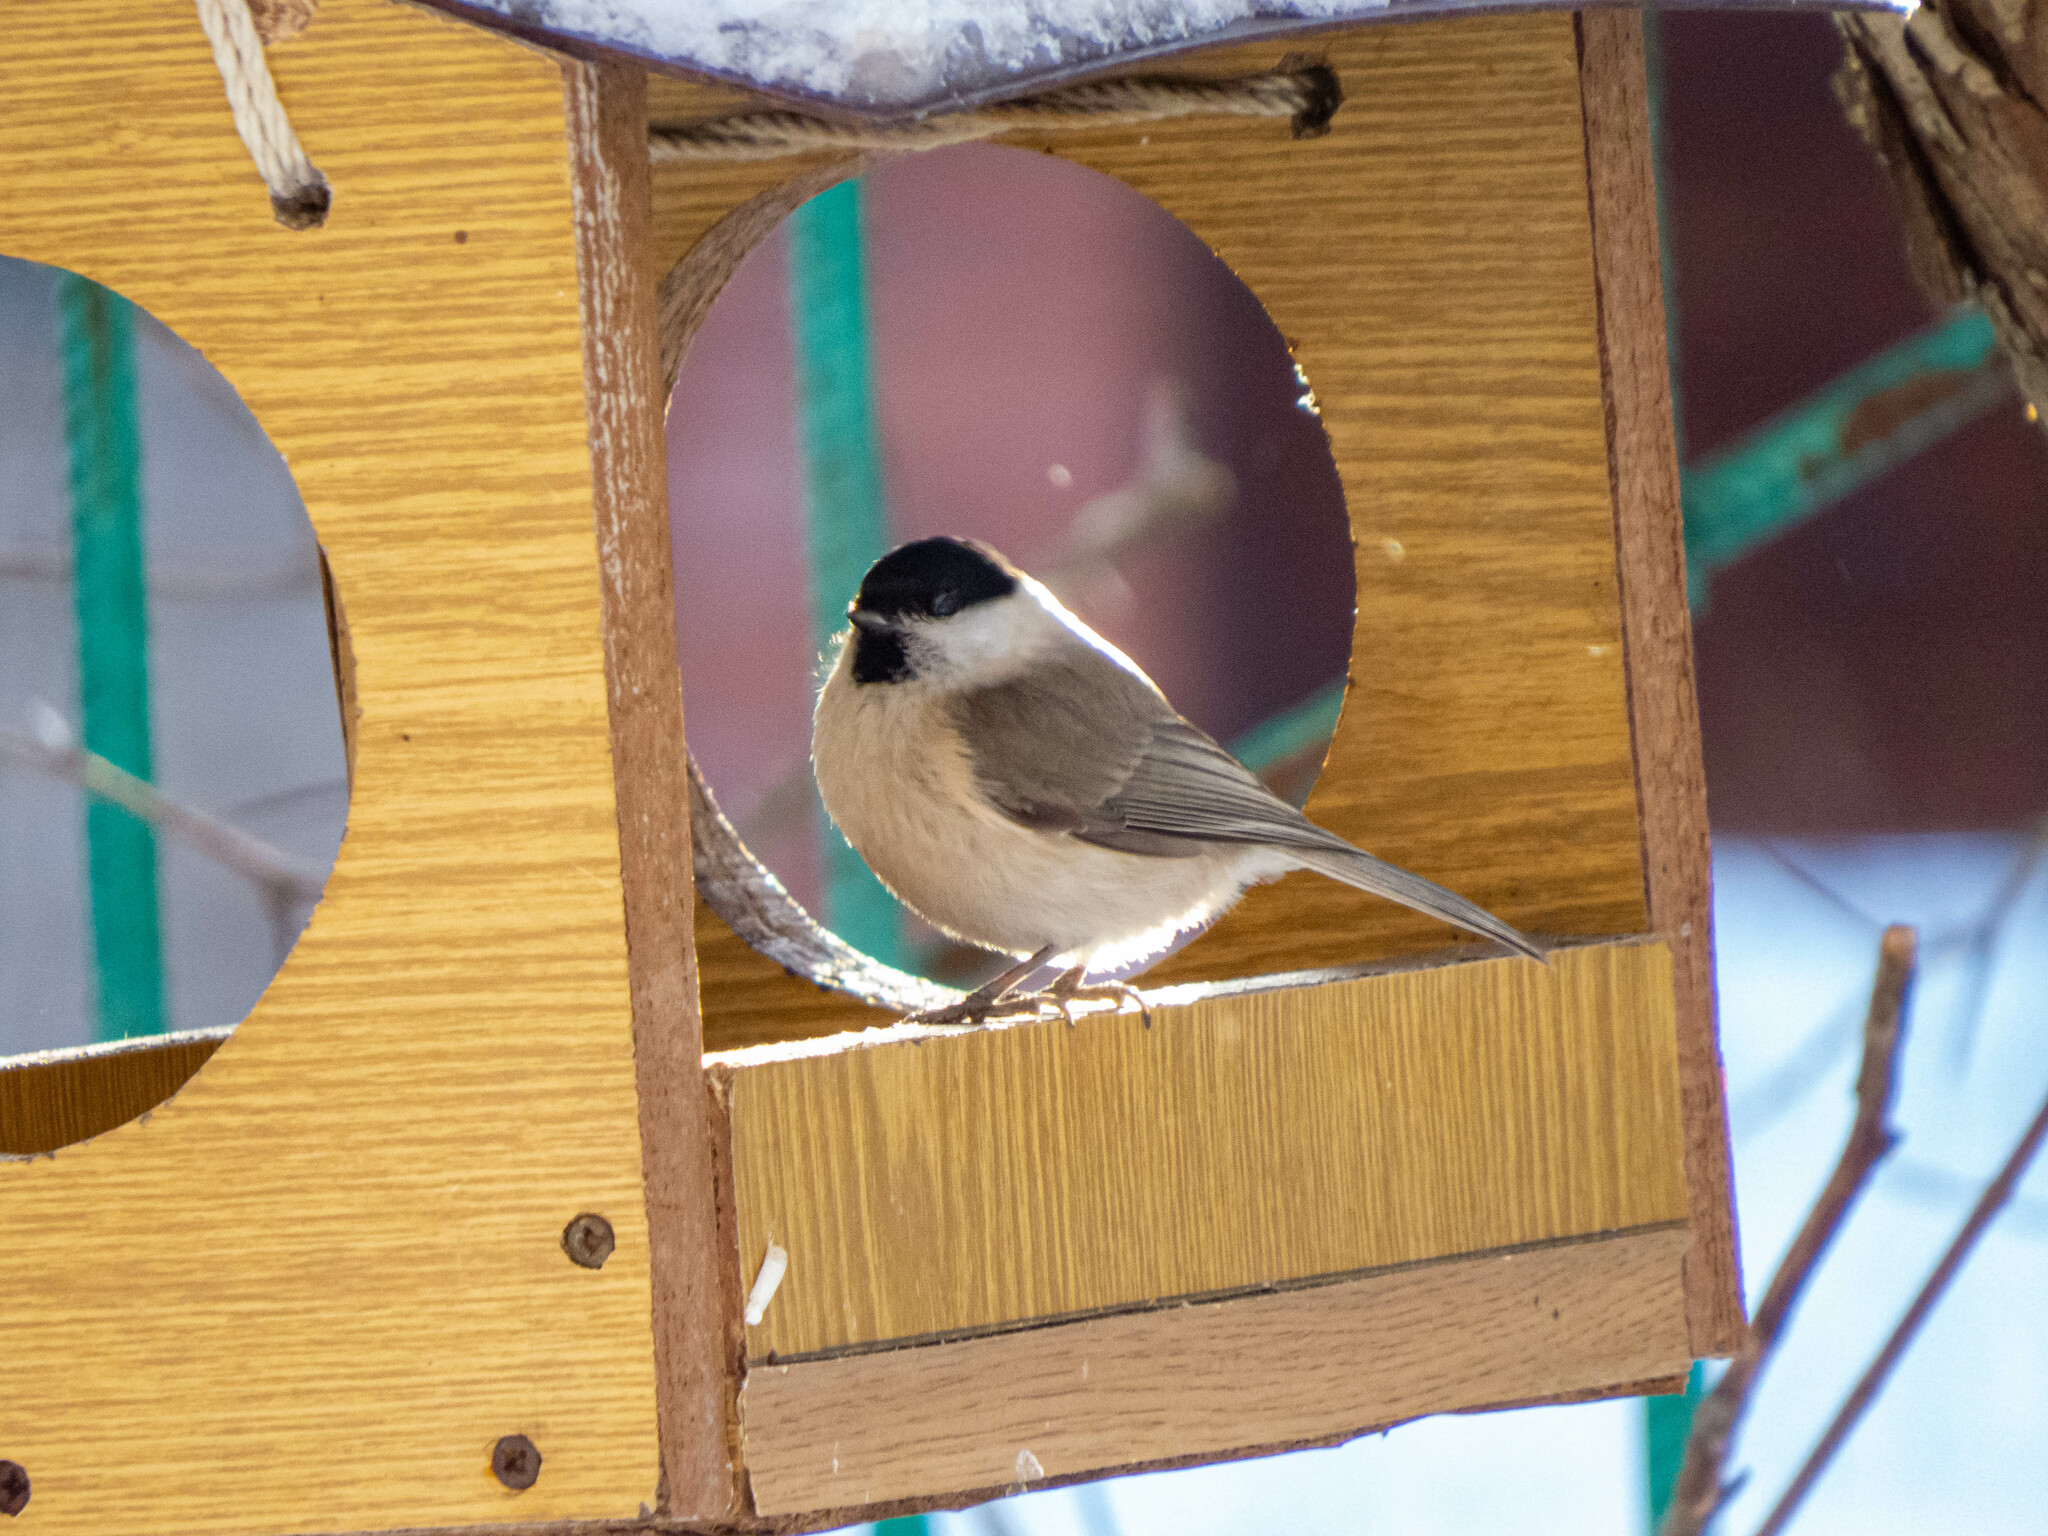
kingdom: Animalia
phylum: Chordata
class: Aves
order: Passeriformes
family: Paridae
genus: Poecile
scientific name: Poecile palustris
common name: Marsh tit
